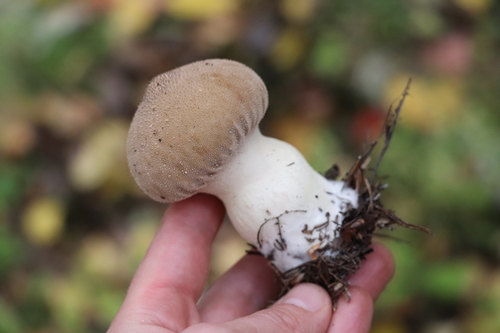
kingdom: Fungi
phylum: Basidiomycota
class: Agaricomycetes
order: Agaricales
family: Lycoperdaceae
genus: Lycoperdon
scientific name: Lycoperdon perlatum
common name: Common puffball
